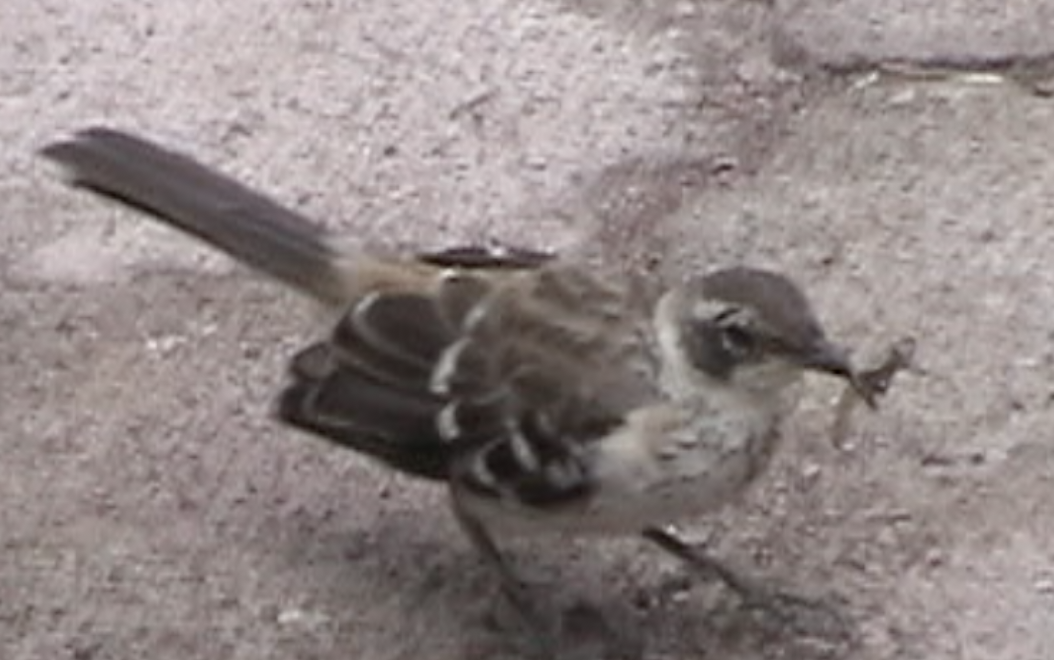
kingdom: Animalia
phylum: Chordata
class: Aves
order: Passeriformes
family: Mimidae
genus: Mimus
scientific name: Mimus parvulus
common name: Galapagos mockingbird
